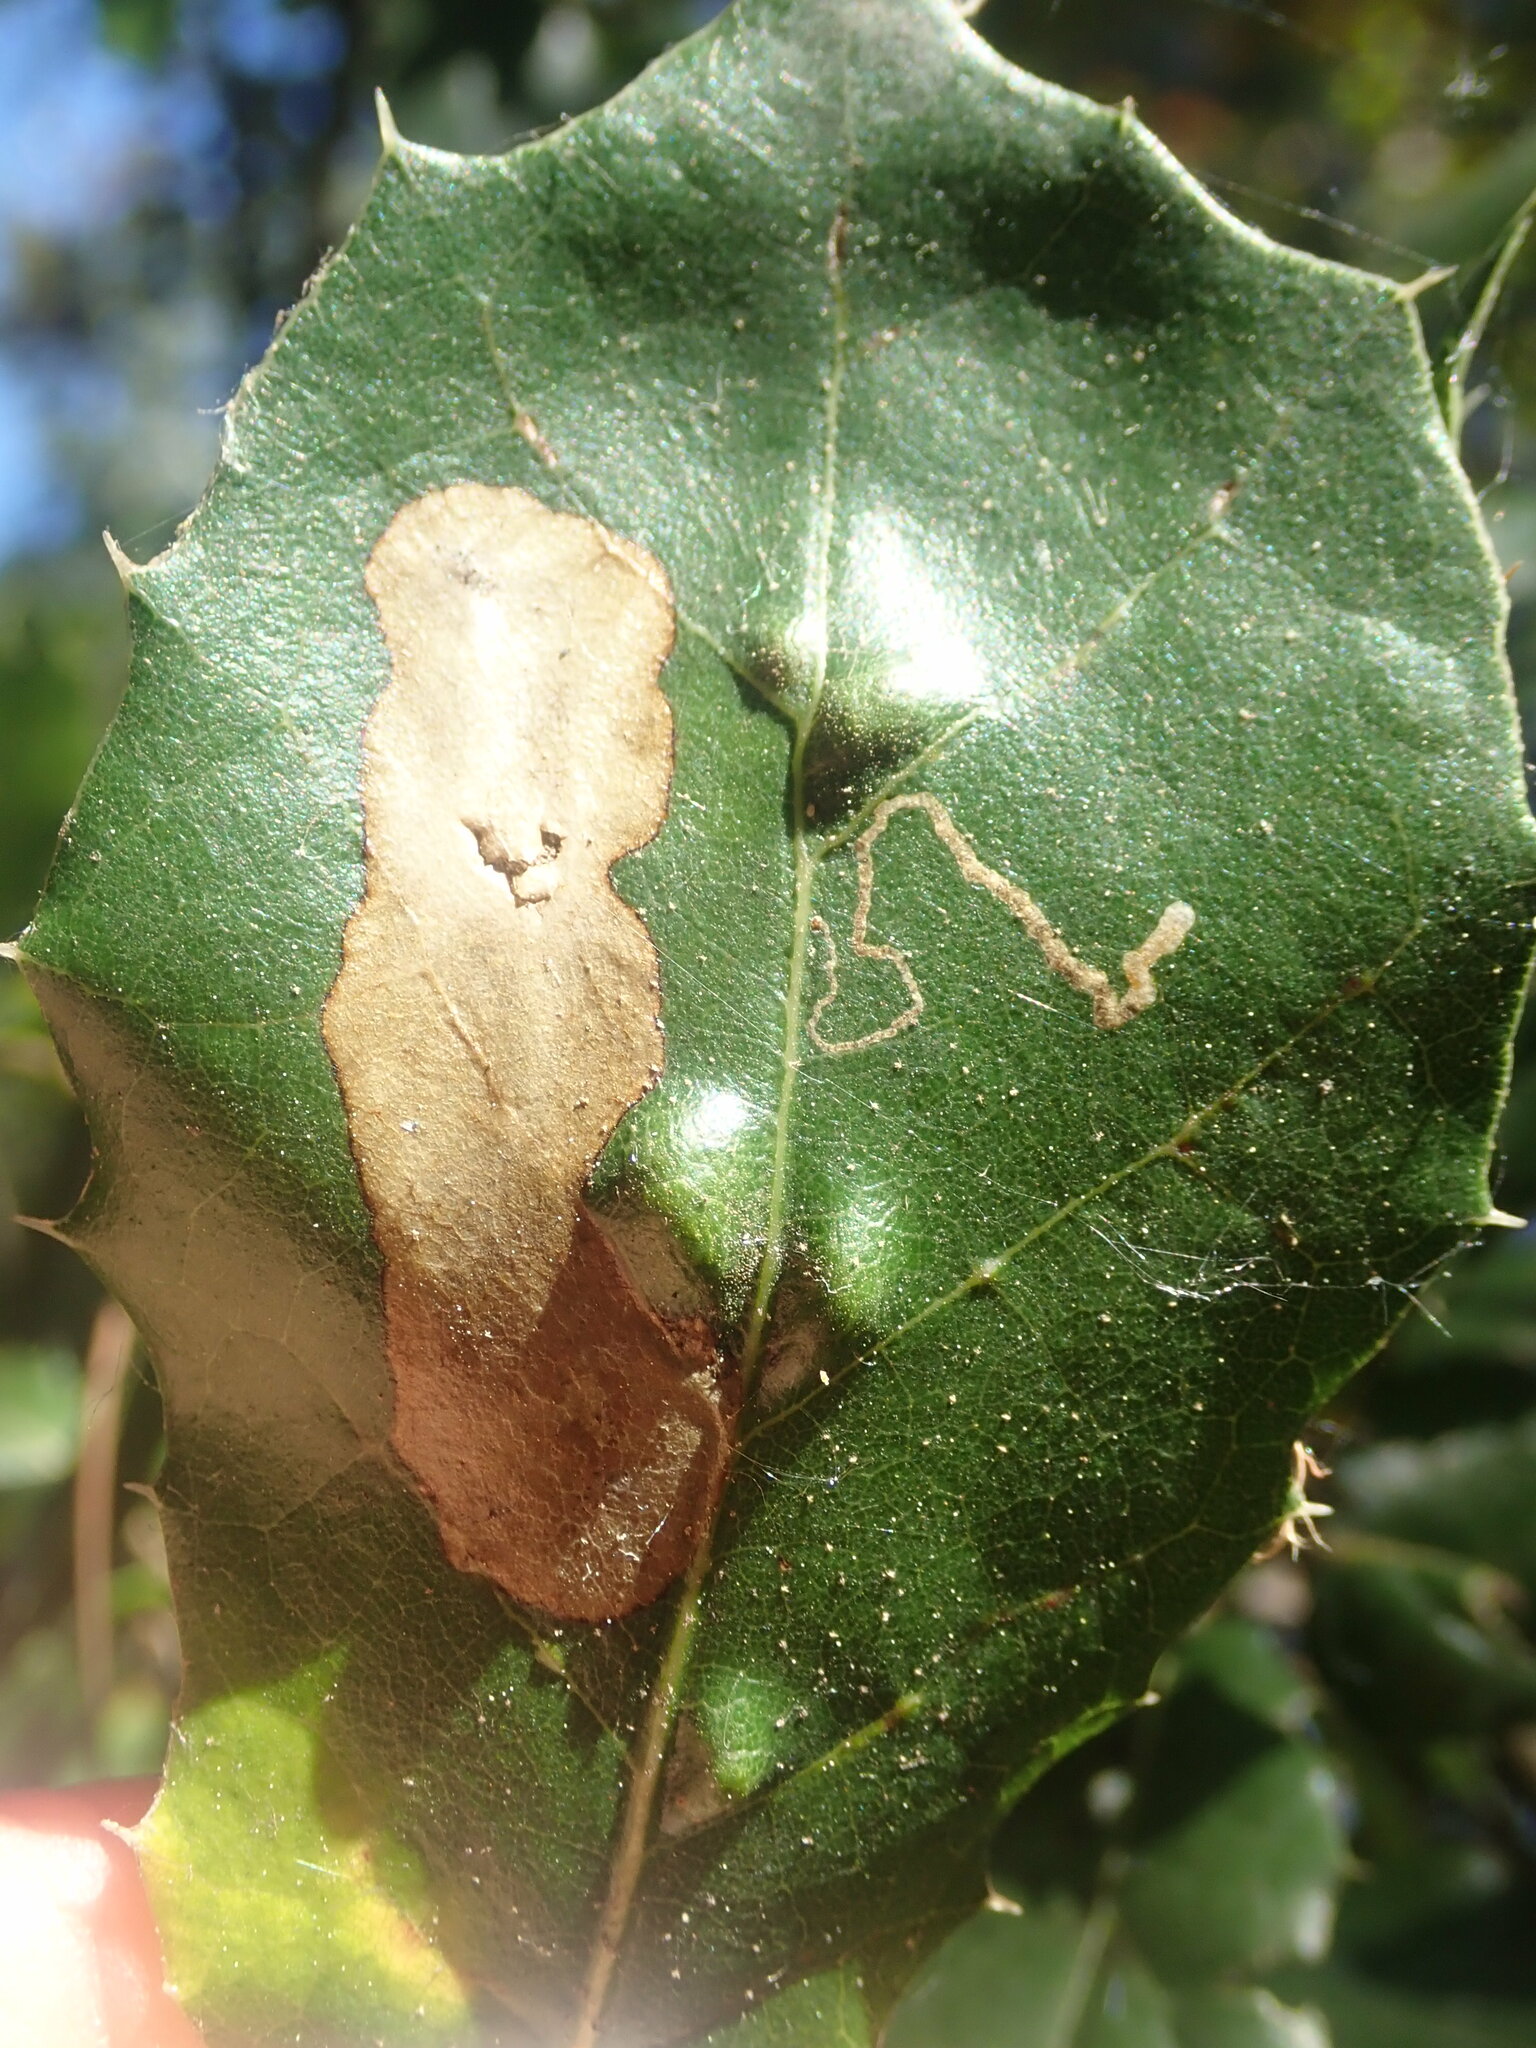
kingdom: Animalia
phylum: Arthropoda
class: Arachnida
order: Trombidiformes
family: Eriophyidae
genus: Aceria
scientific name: Aceria
